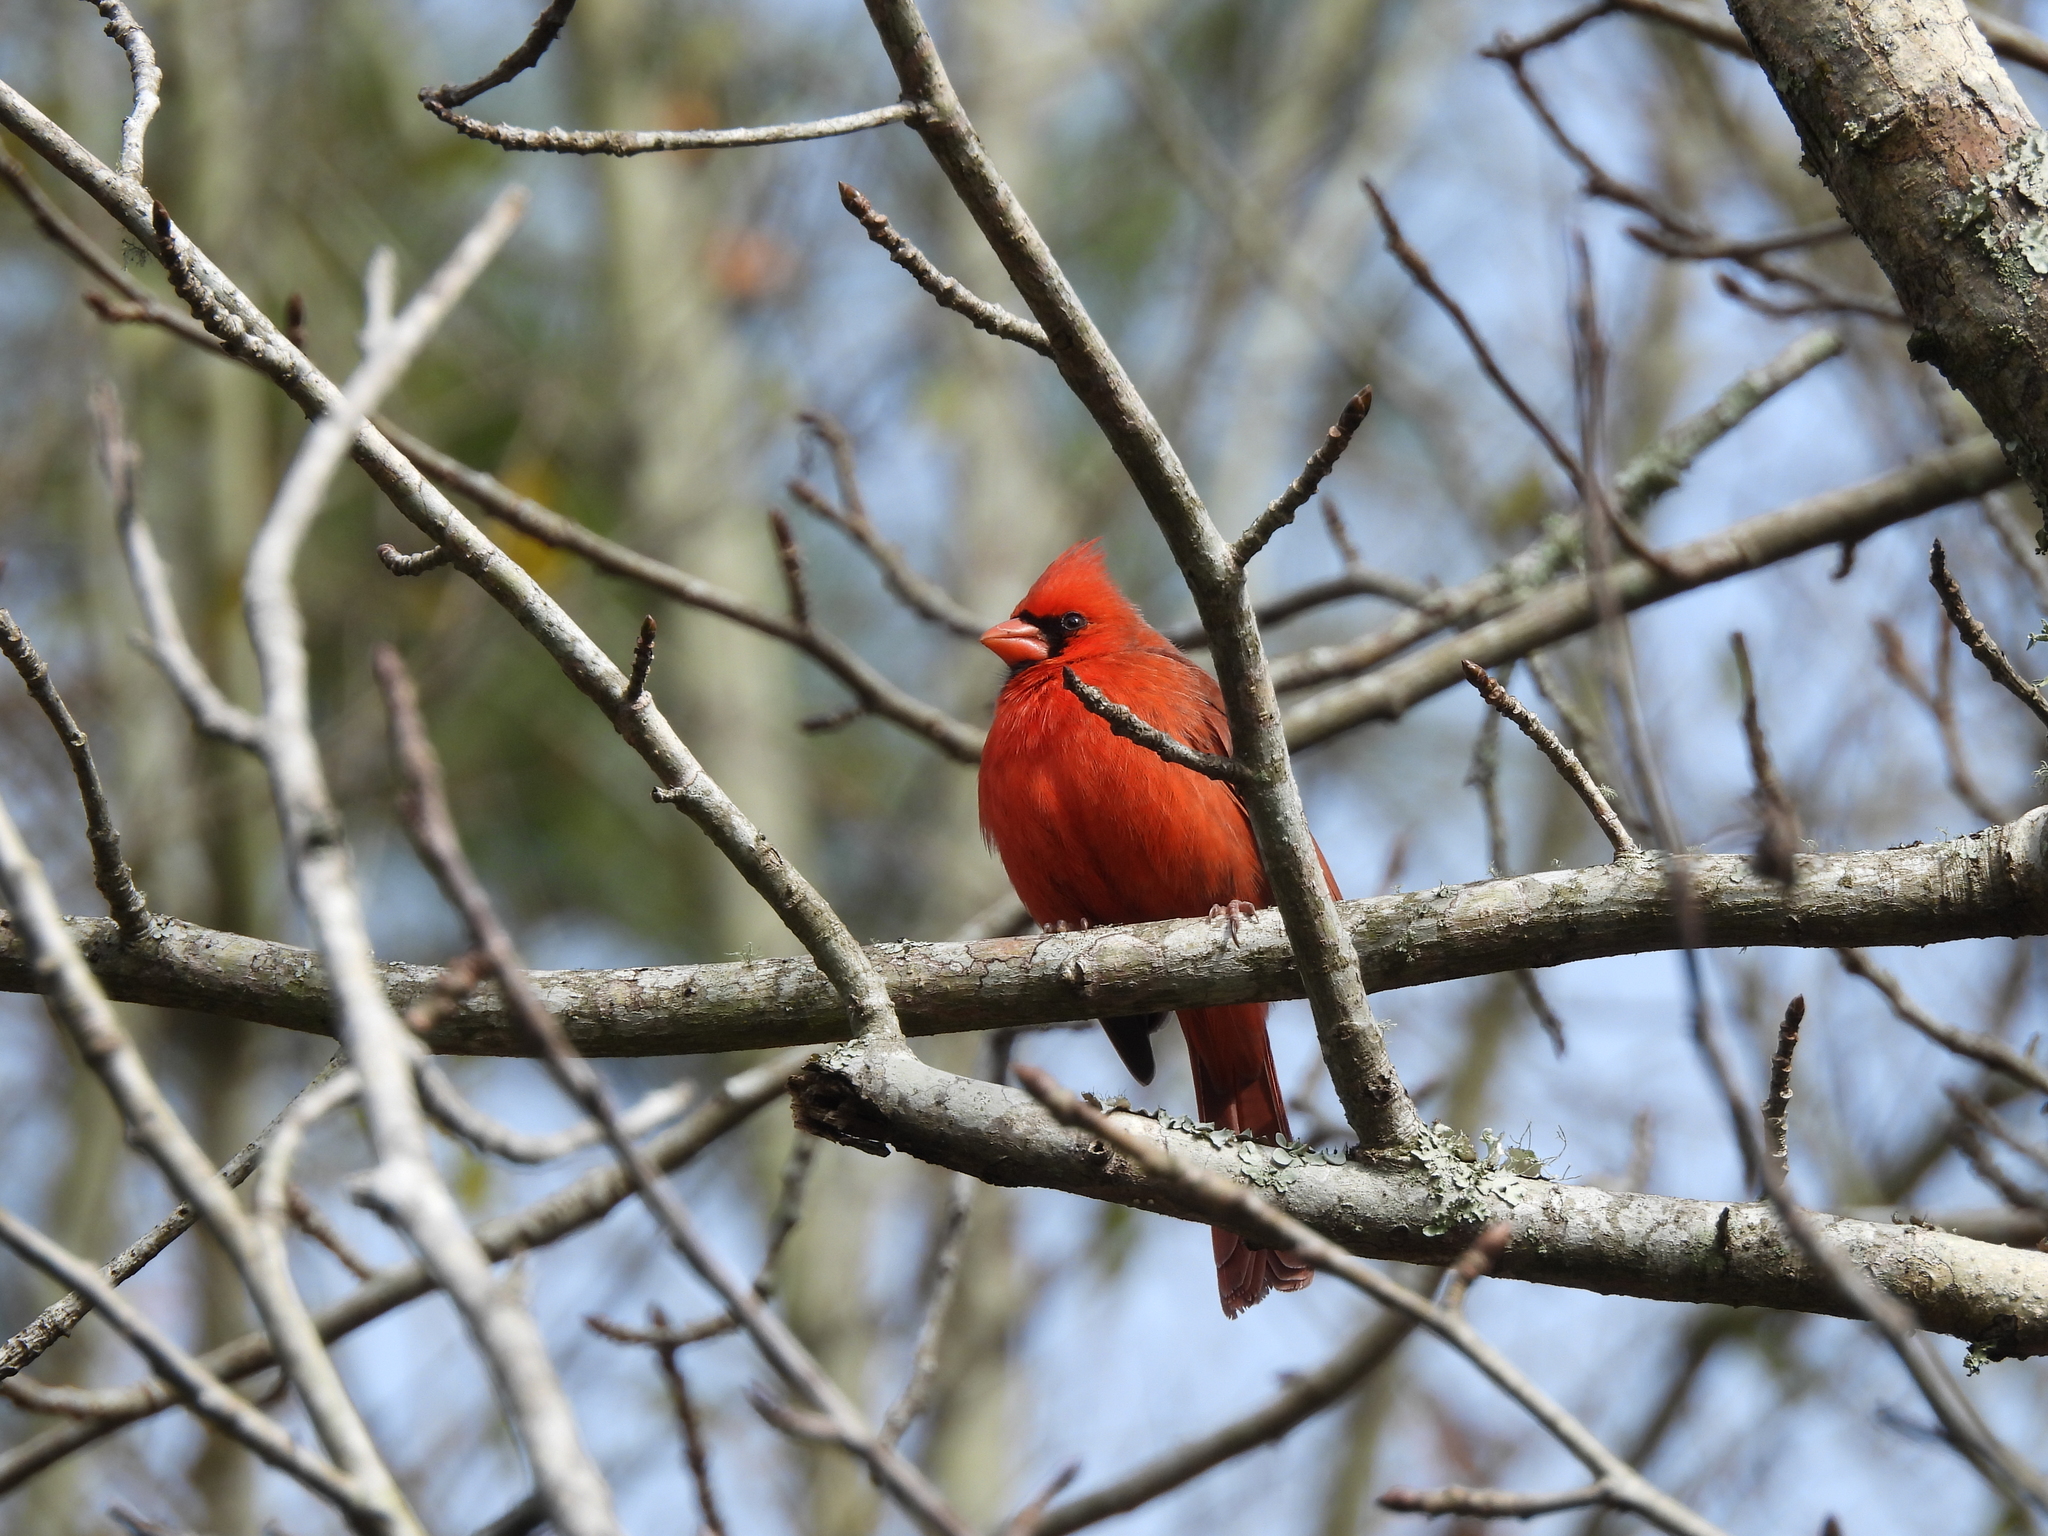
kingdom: Animalia
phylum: Chordata
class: Aves
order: Passeriformes
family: Cardinalidae
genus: Cardinalis
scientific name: Cardinalis cardinalis
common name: Northern cardinal
